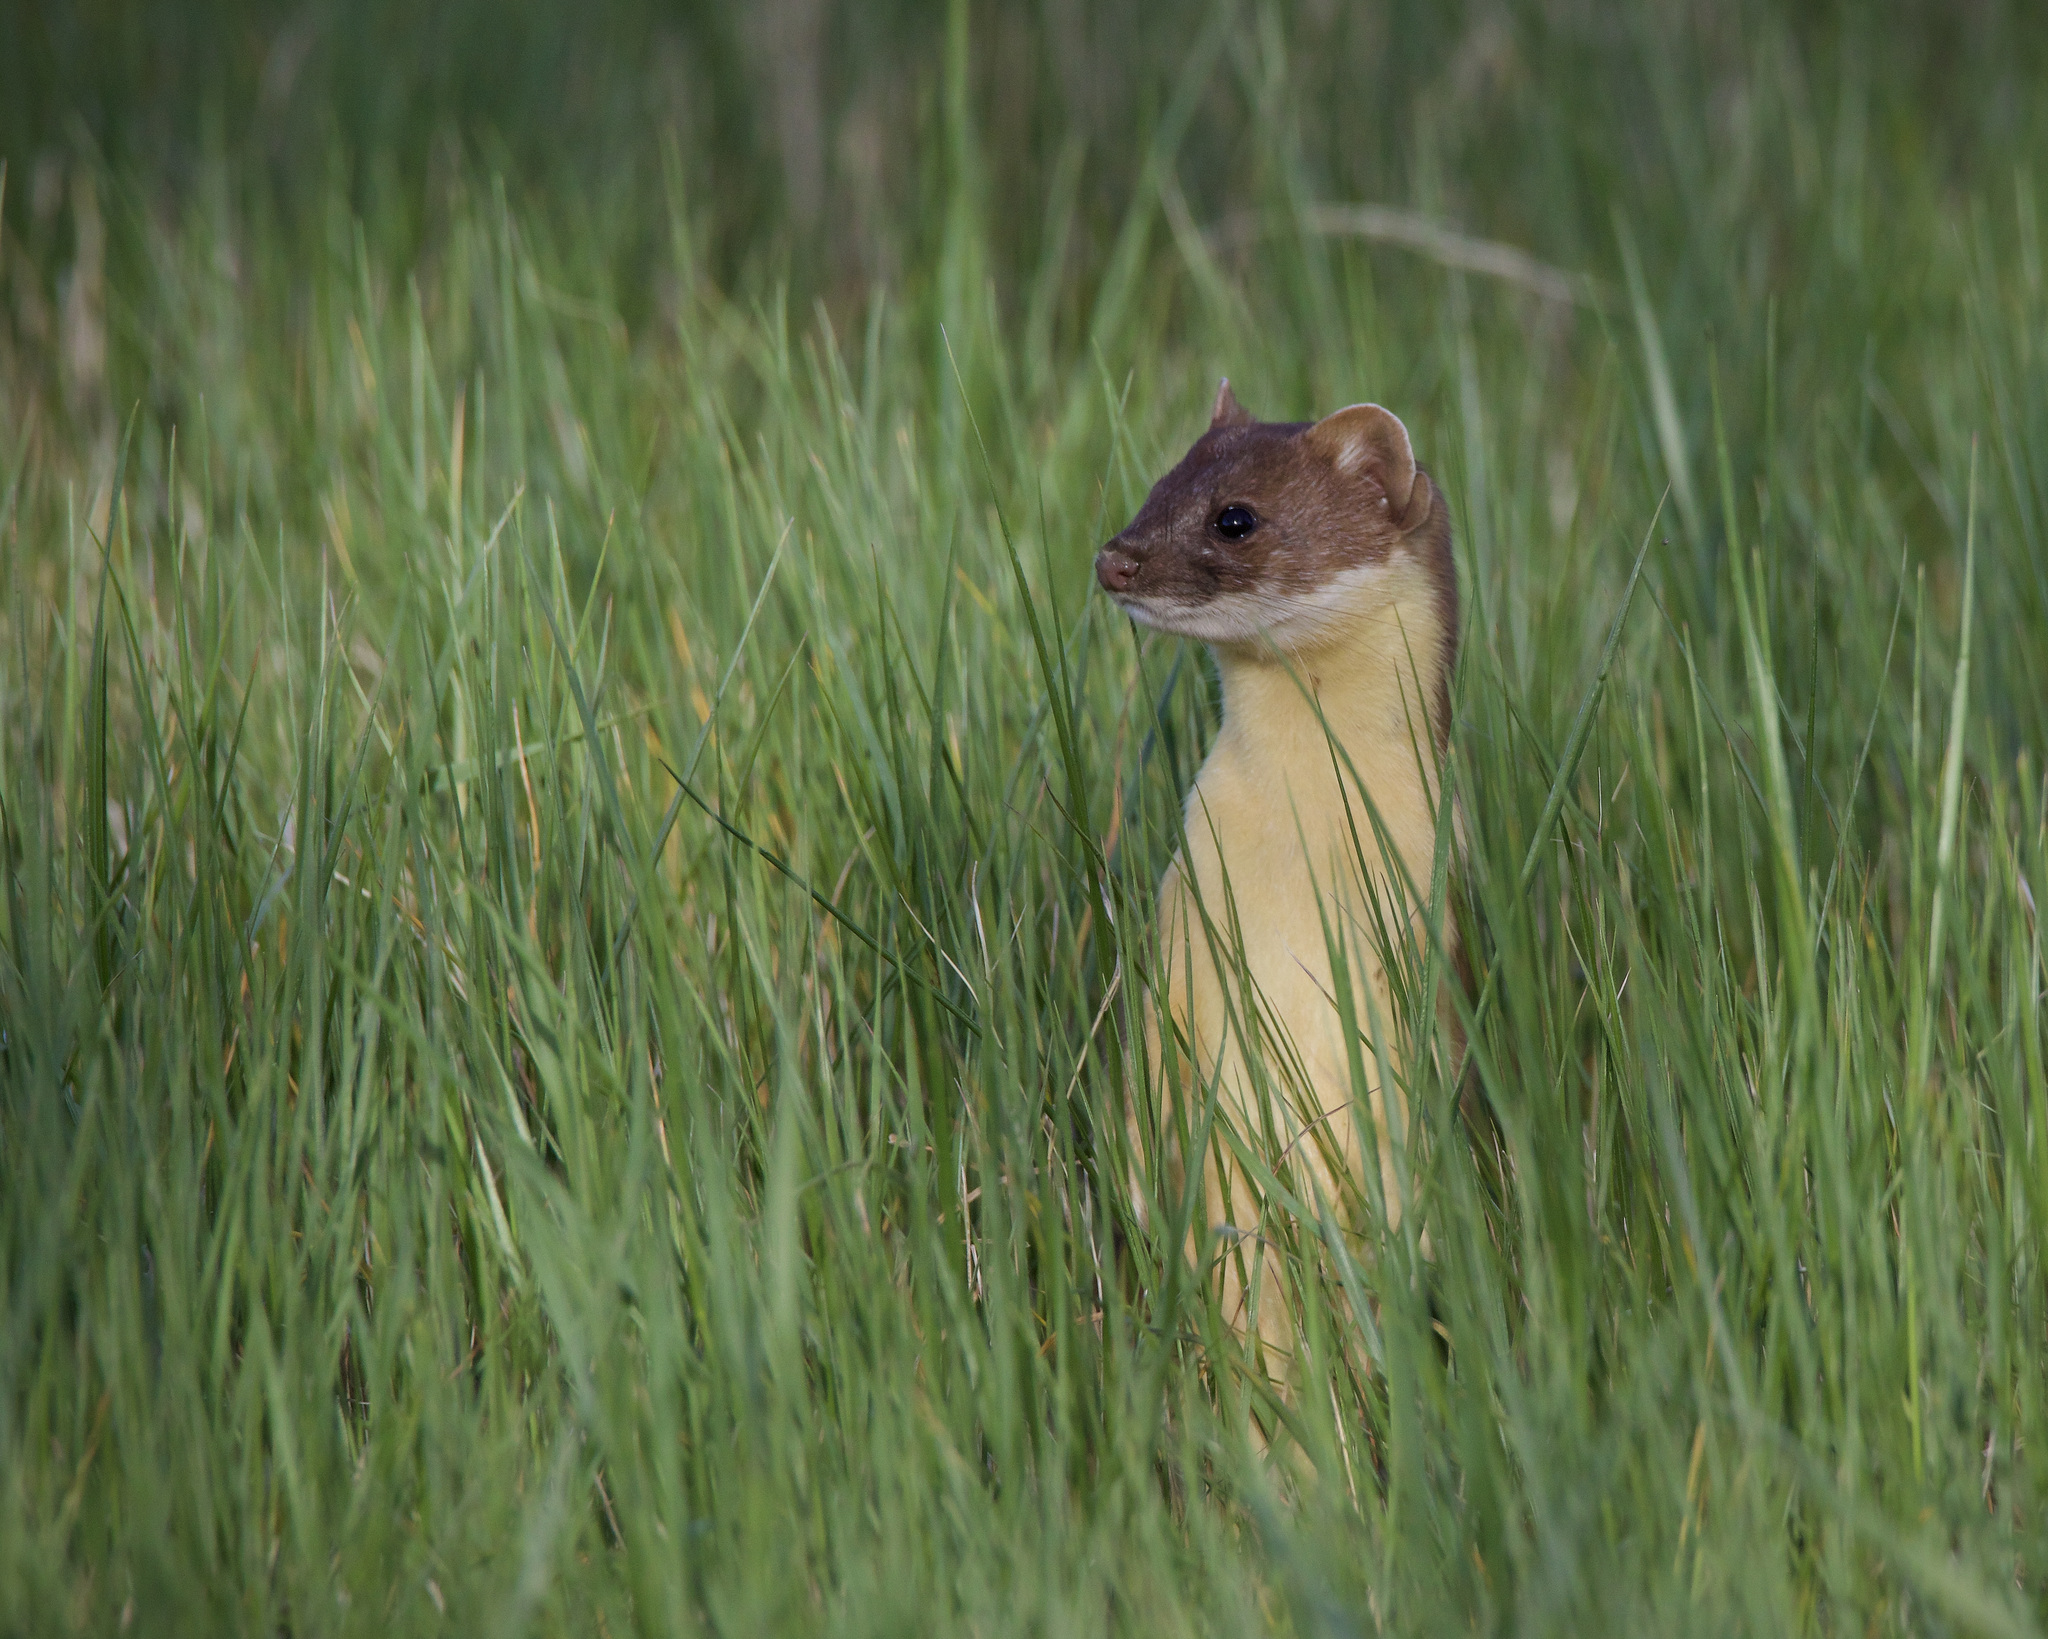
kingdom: Animalia
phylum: Chordata
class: Mammalia
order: Carnivora
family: Mustelidae
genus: Mustela
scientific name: Mustela
